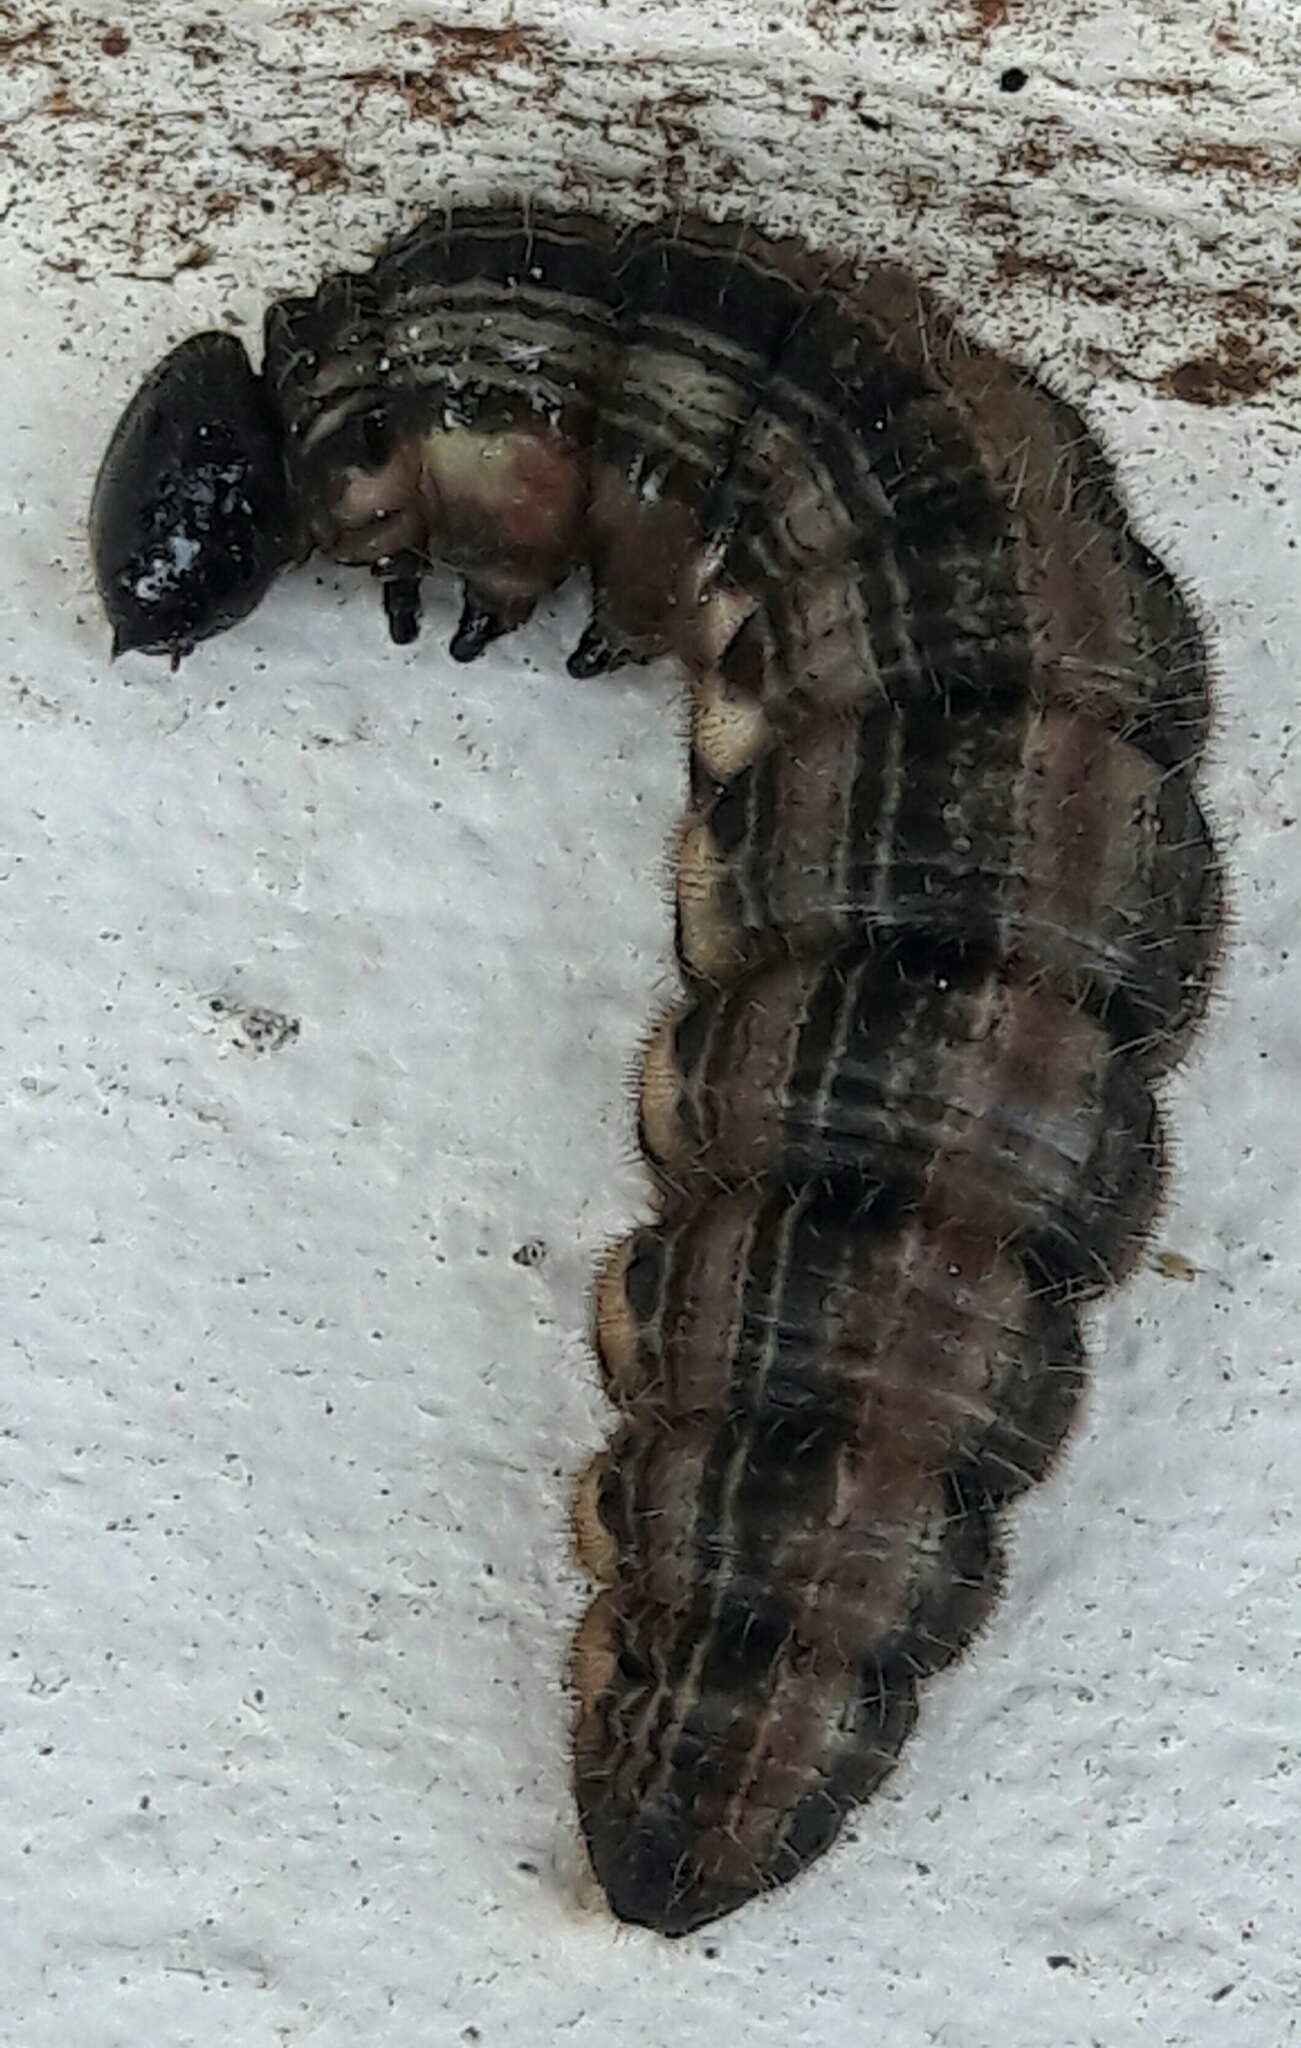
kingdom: Animalia
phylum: Arthropoda
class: Insecta
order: Lepidoptera
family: Nymphalidae
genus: Brassolis
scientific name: Brassolis sophorae
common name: Coconut caterpillar
